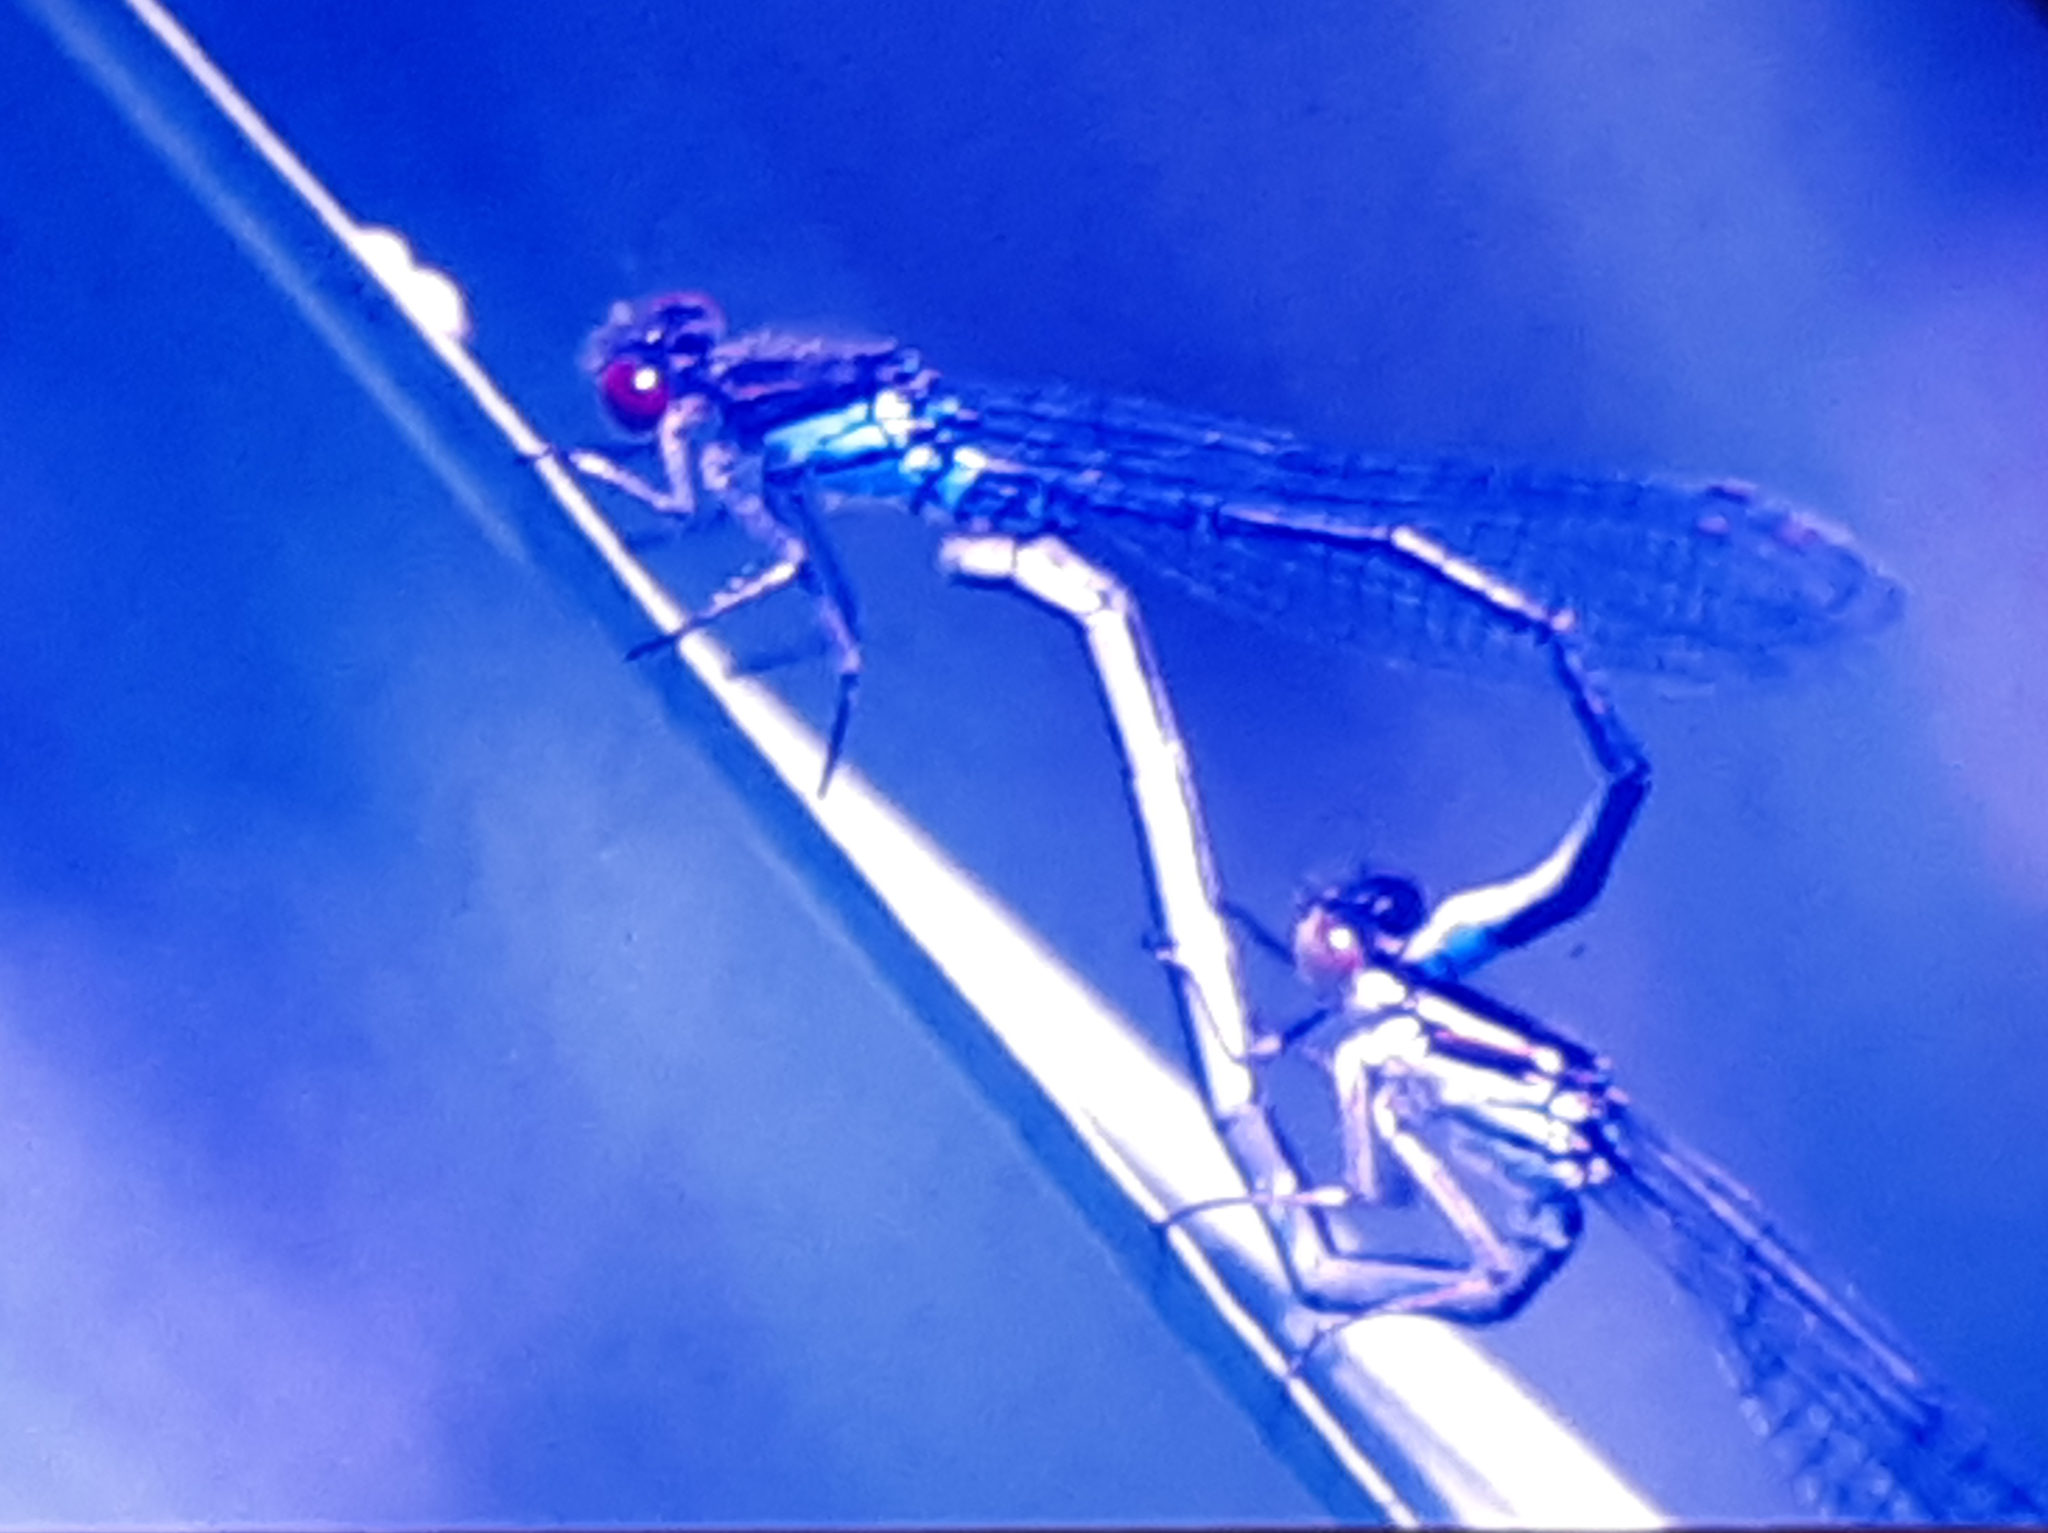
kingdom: Animalia
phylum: Arthropoda
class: Insecta
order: Odonata
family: Coenagrionidae
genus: Erythromma
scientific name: Erythromma najas
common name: Red-eyed damselfly
